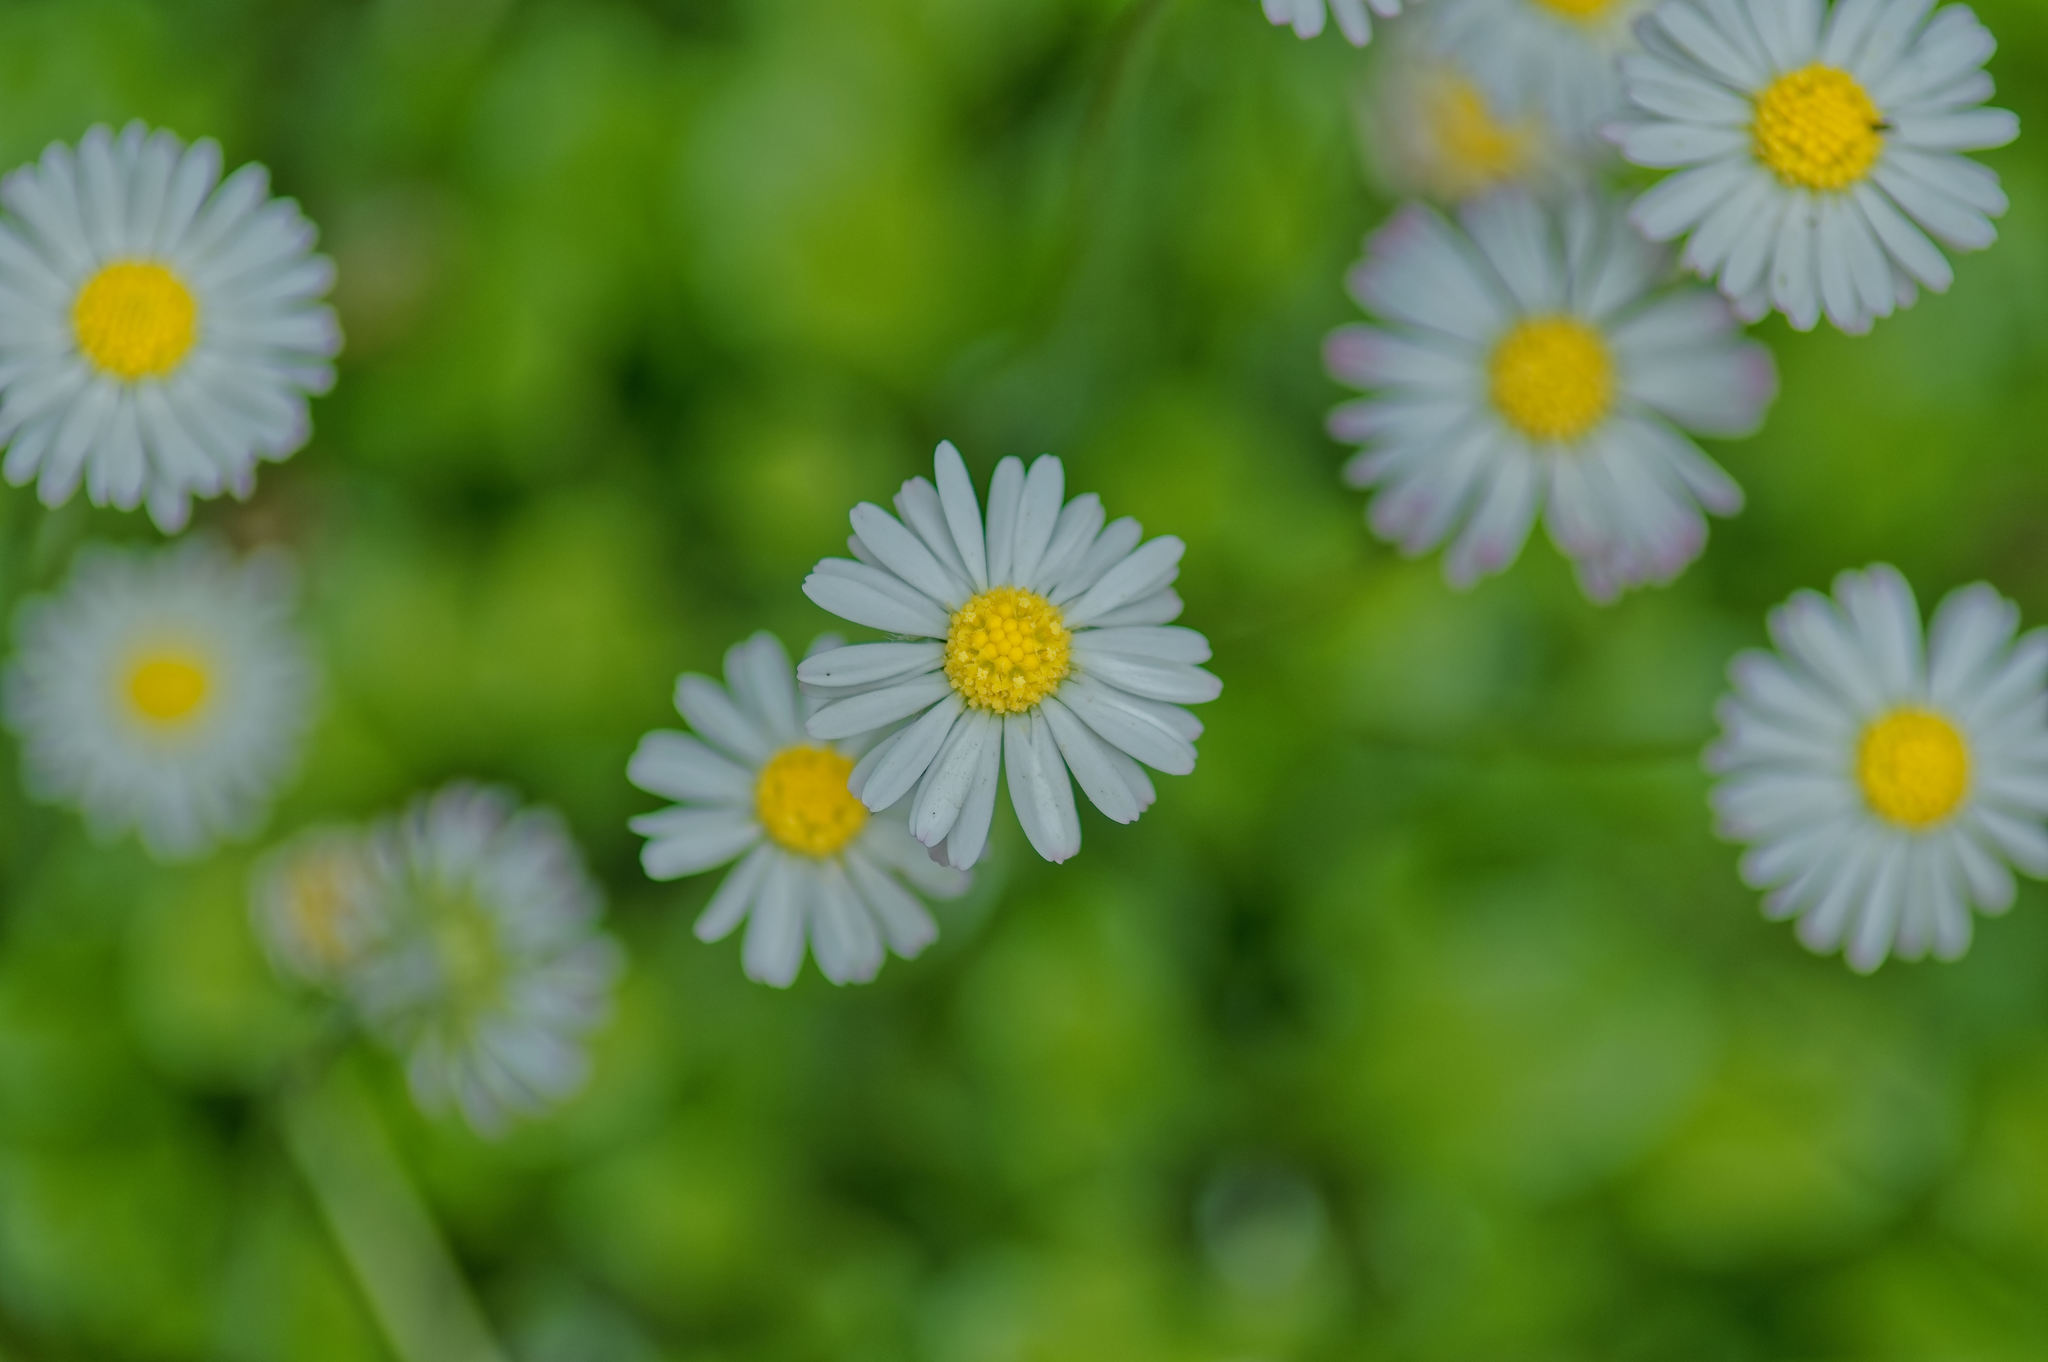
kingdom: Plantae
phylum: Tracheophyta
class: Magnoliopsida
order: Asterales
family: Asteraceae
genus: Bellis
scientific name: Bellis perennis
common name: Lawndaisy
